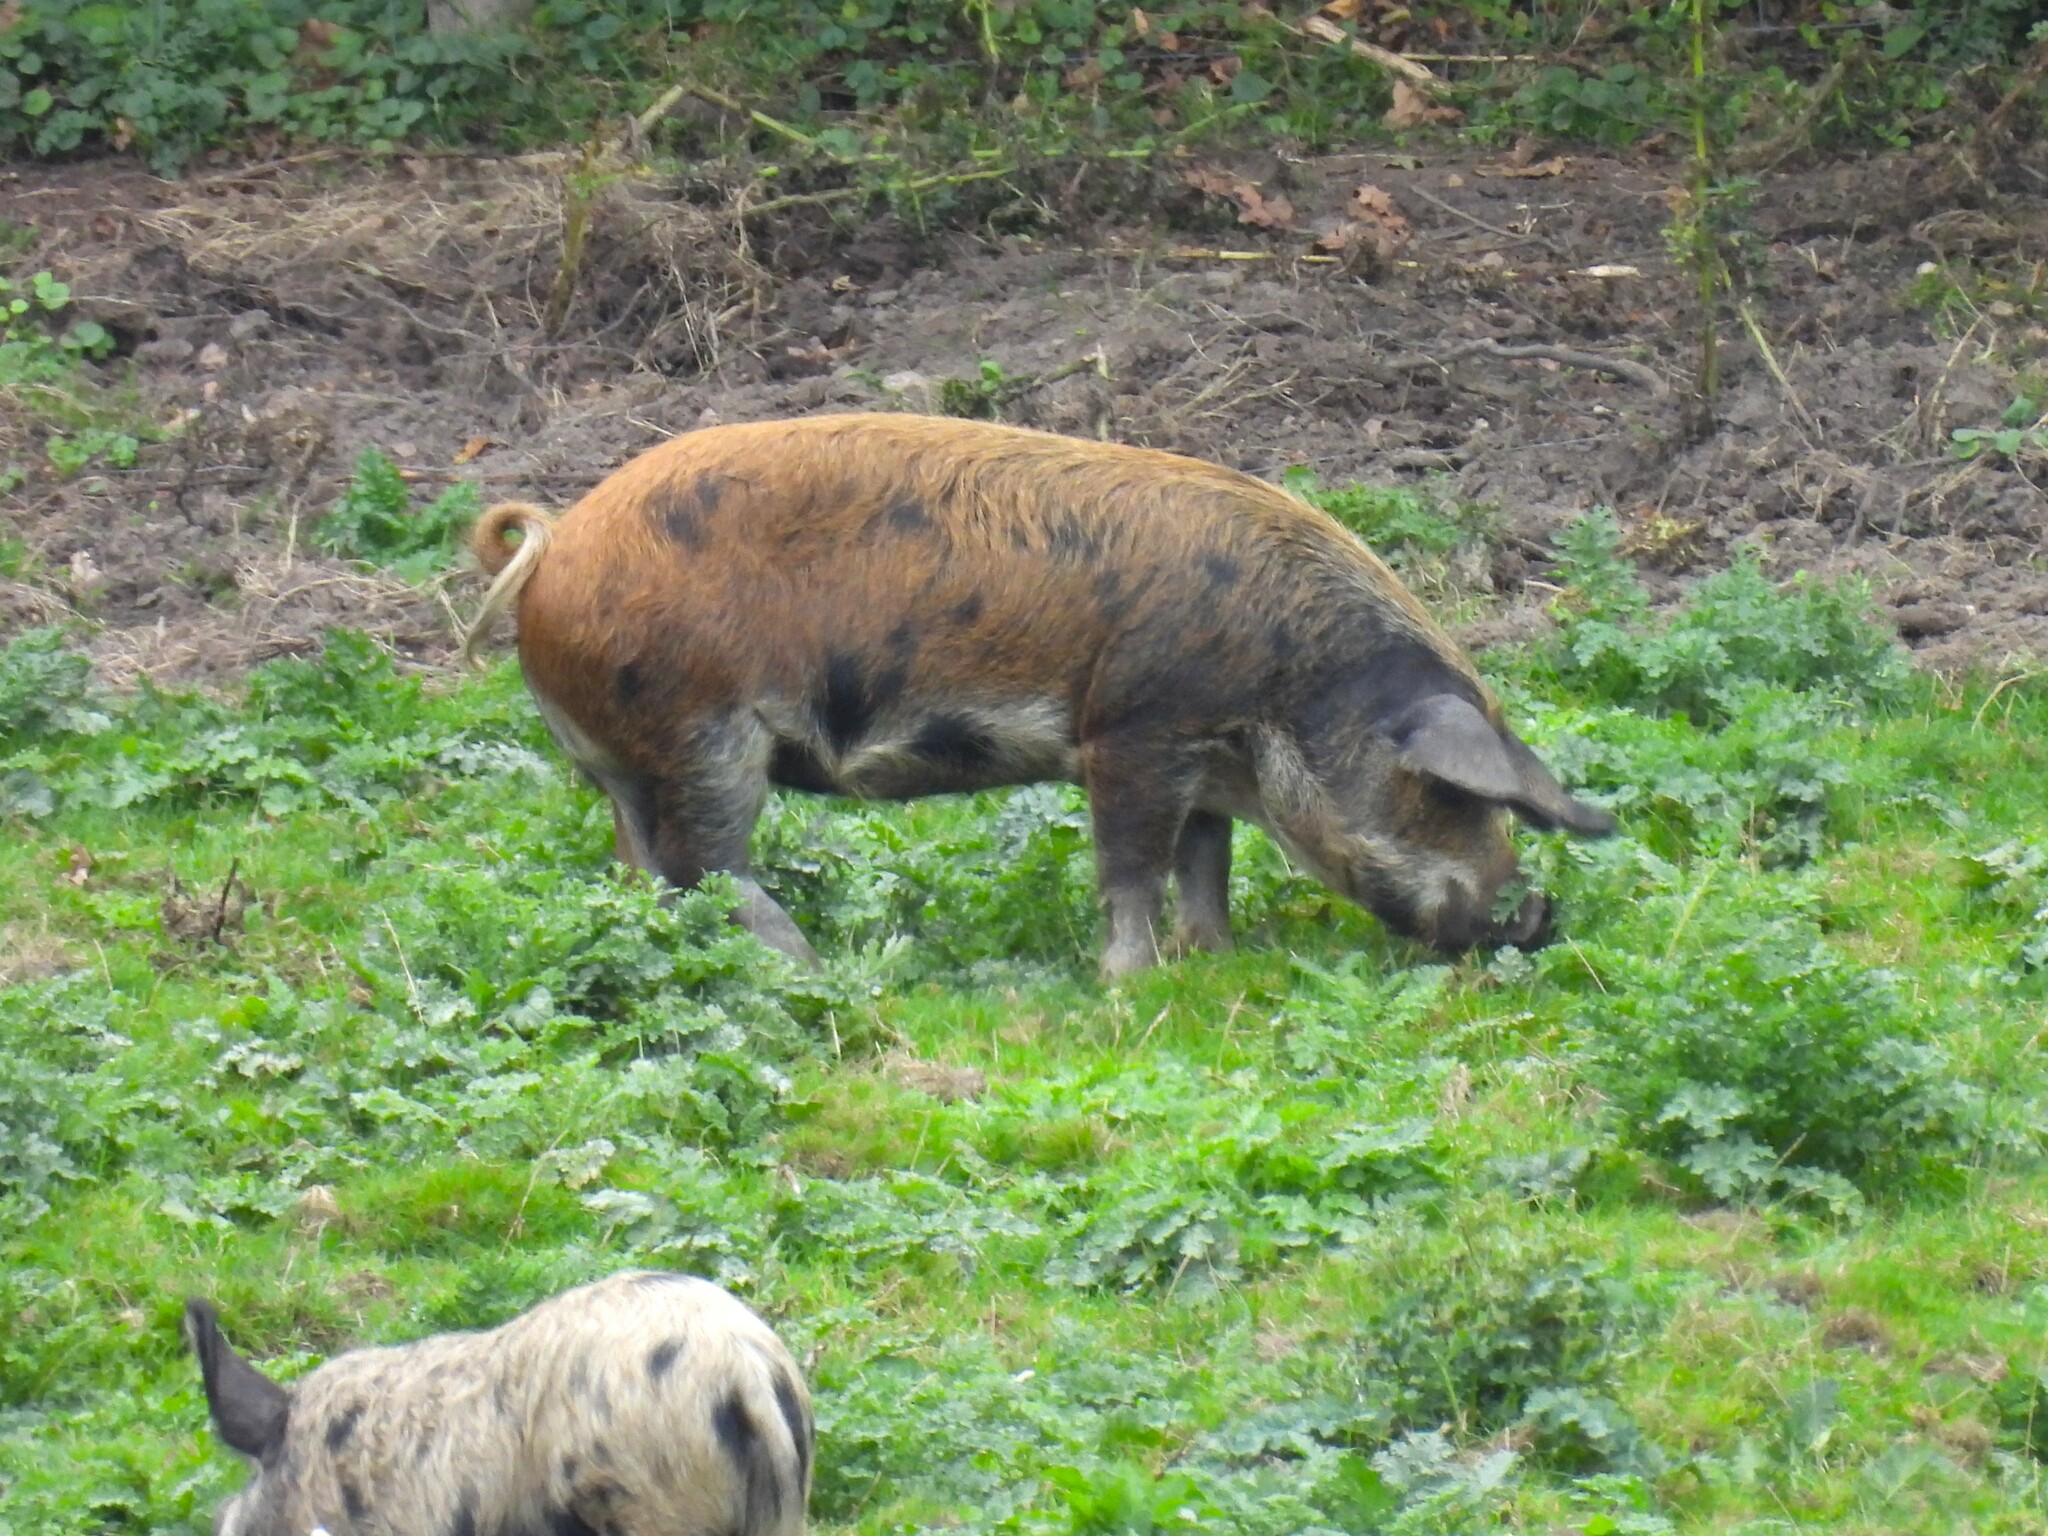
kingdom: Animalia
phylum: Chordata
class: Mammalia
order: Artiodactyla
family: Suidae
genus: Sus
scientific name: Sus scrofa
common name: Wild boar
